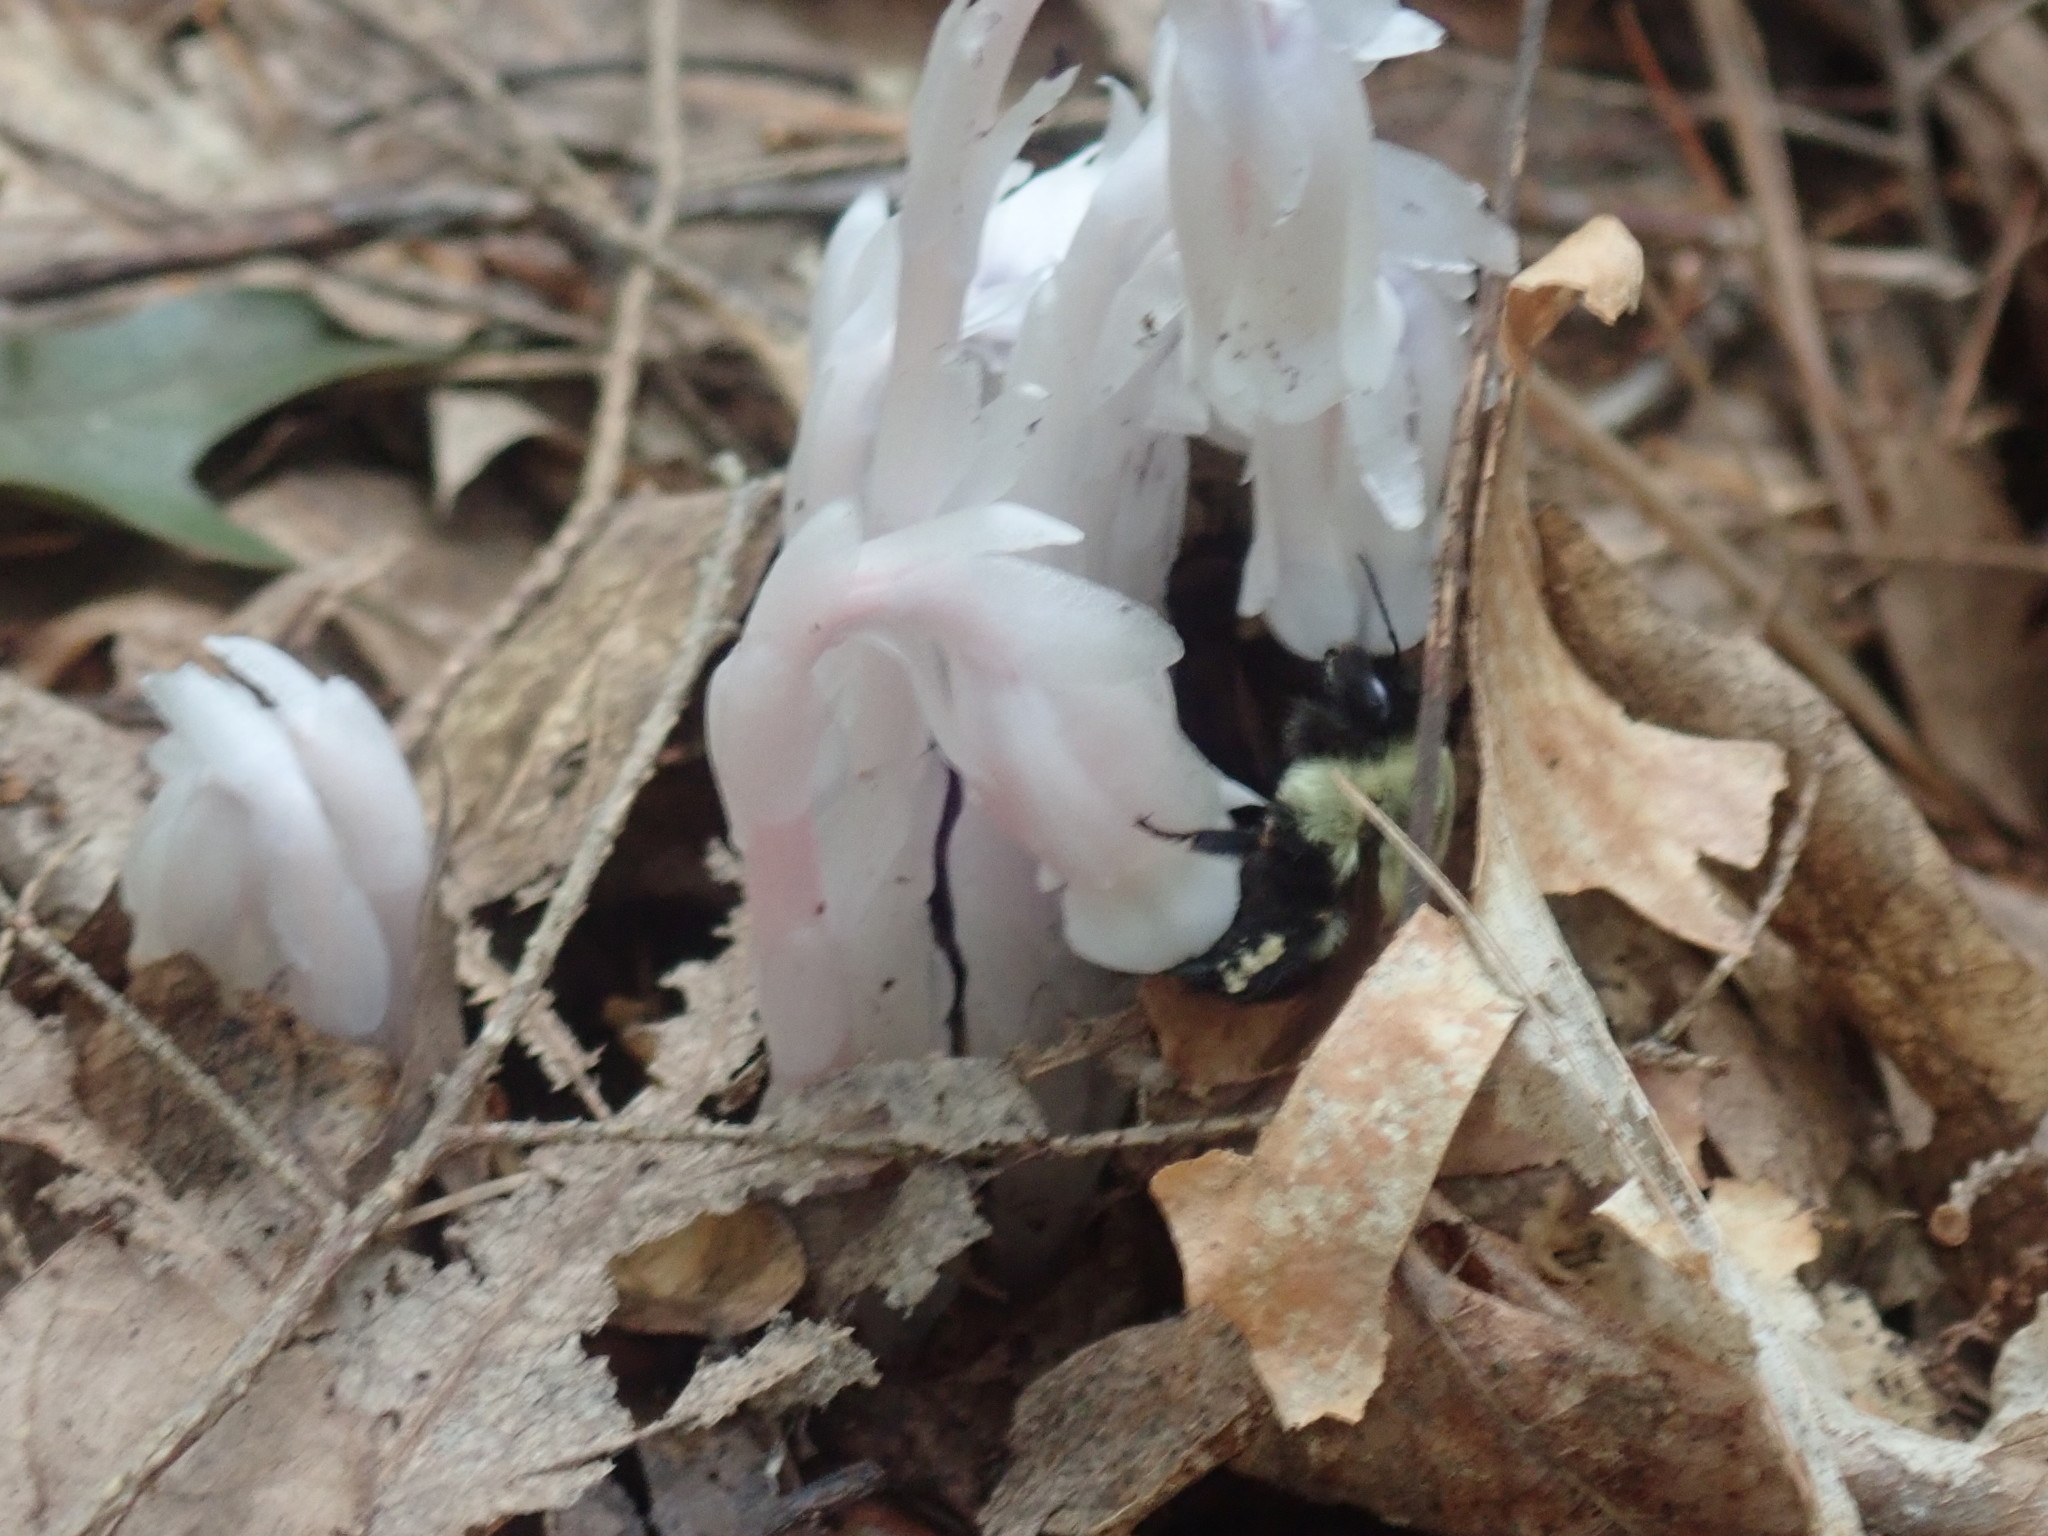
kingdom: Animalia
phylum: Arthropoda
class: Insecta
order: Hymenoptera
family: Apidae
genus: Bombus
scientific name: Bombus impatiens
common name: Common eastern bumble bee
